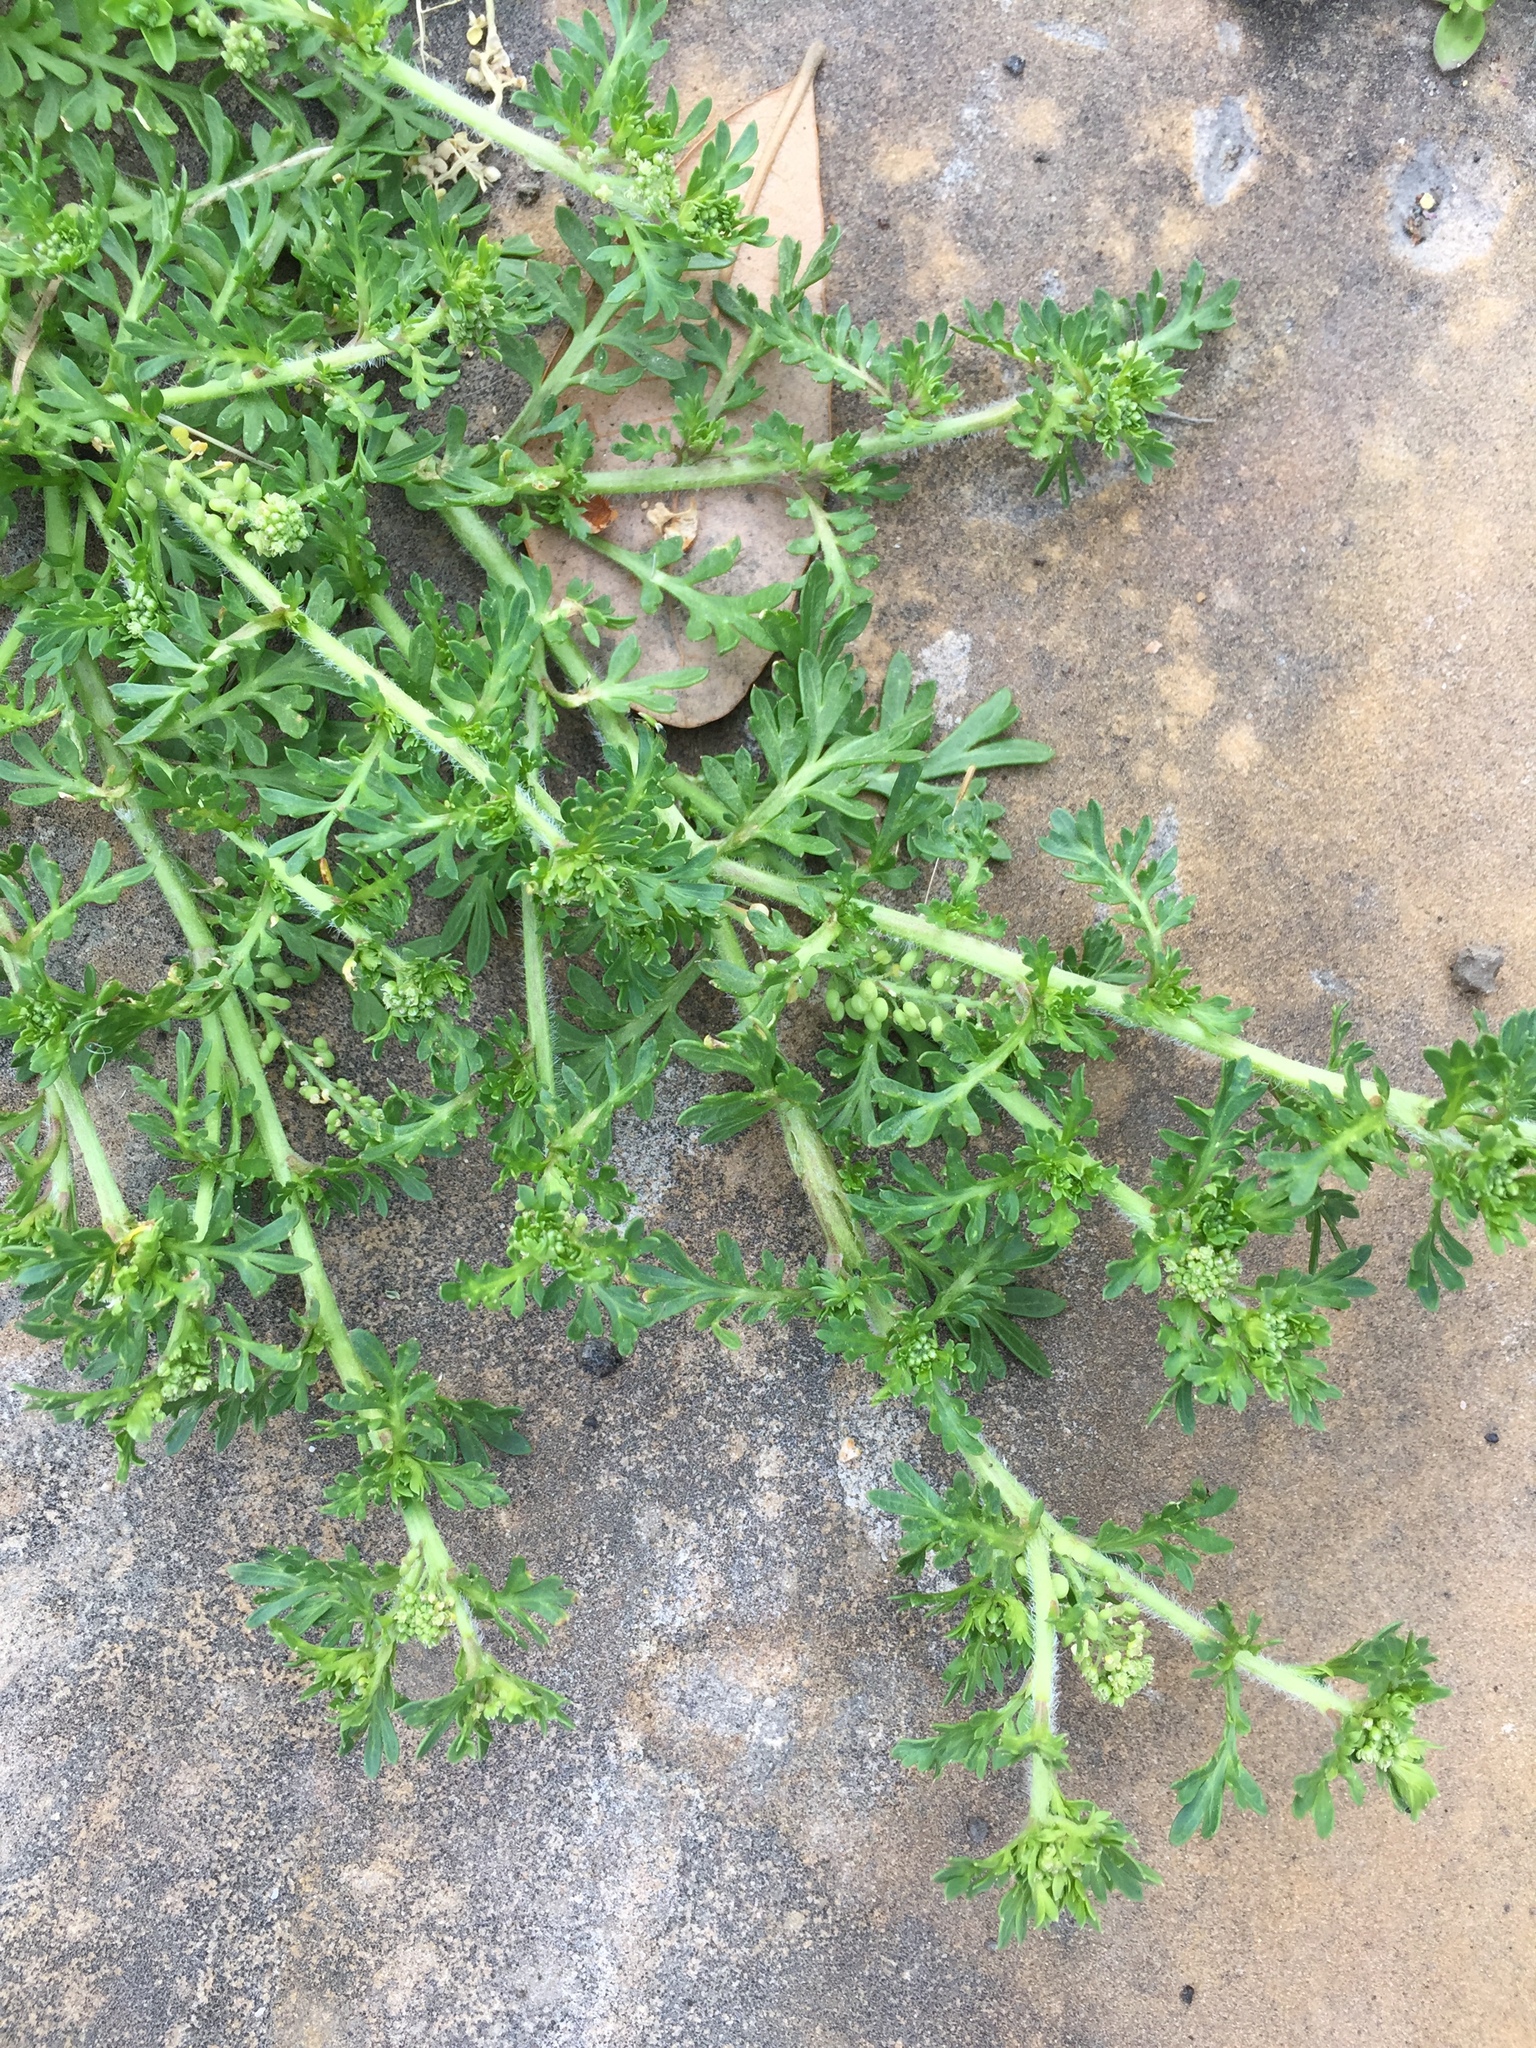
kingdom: Plantae
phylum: Tracheophyta
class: Magnoliopsida
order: Brassicales
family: Brassicaceae
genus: Lepidium
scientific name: Lepidium didymum
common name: Lesser swinecress
